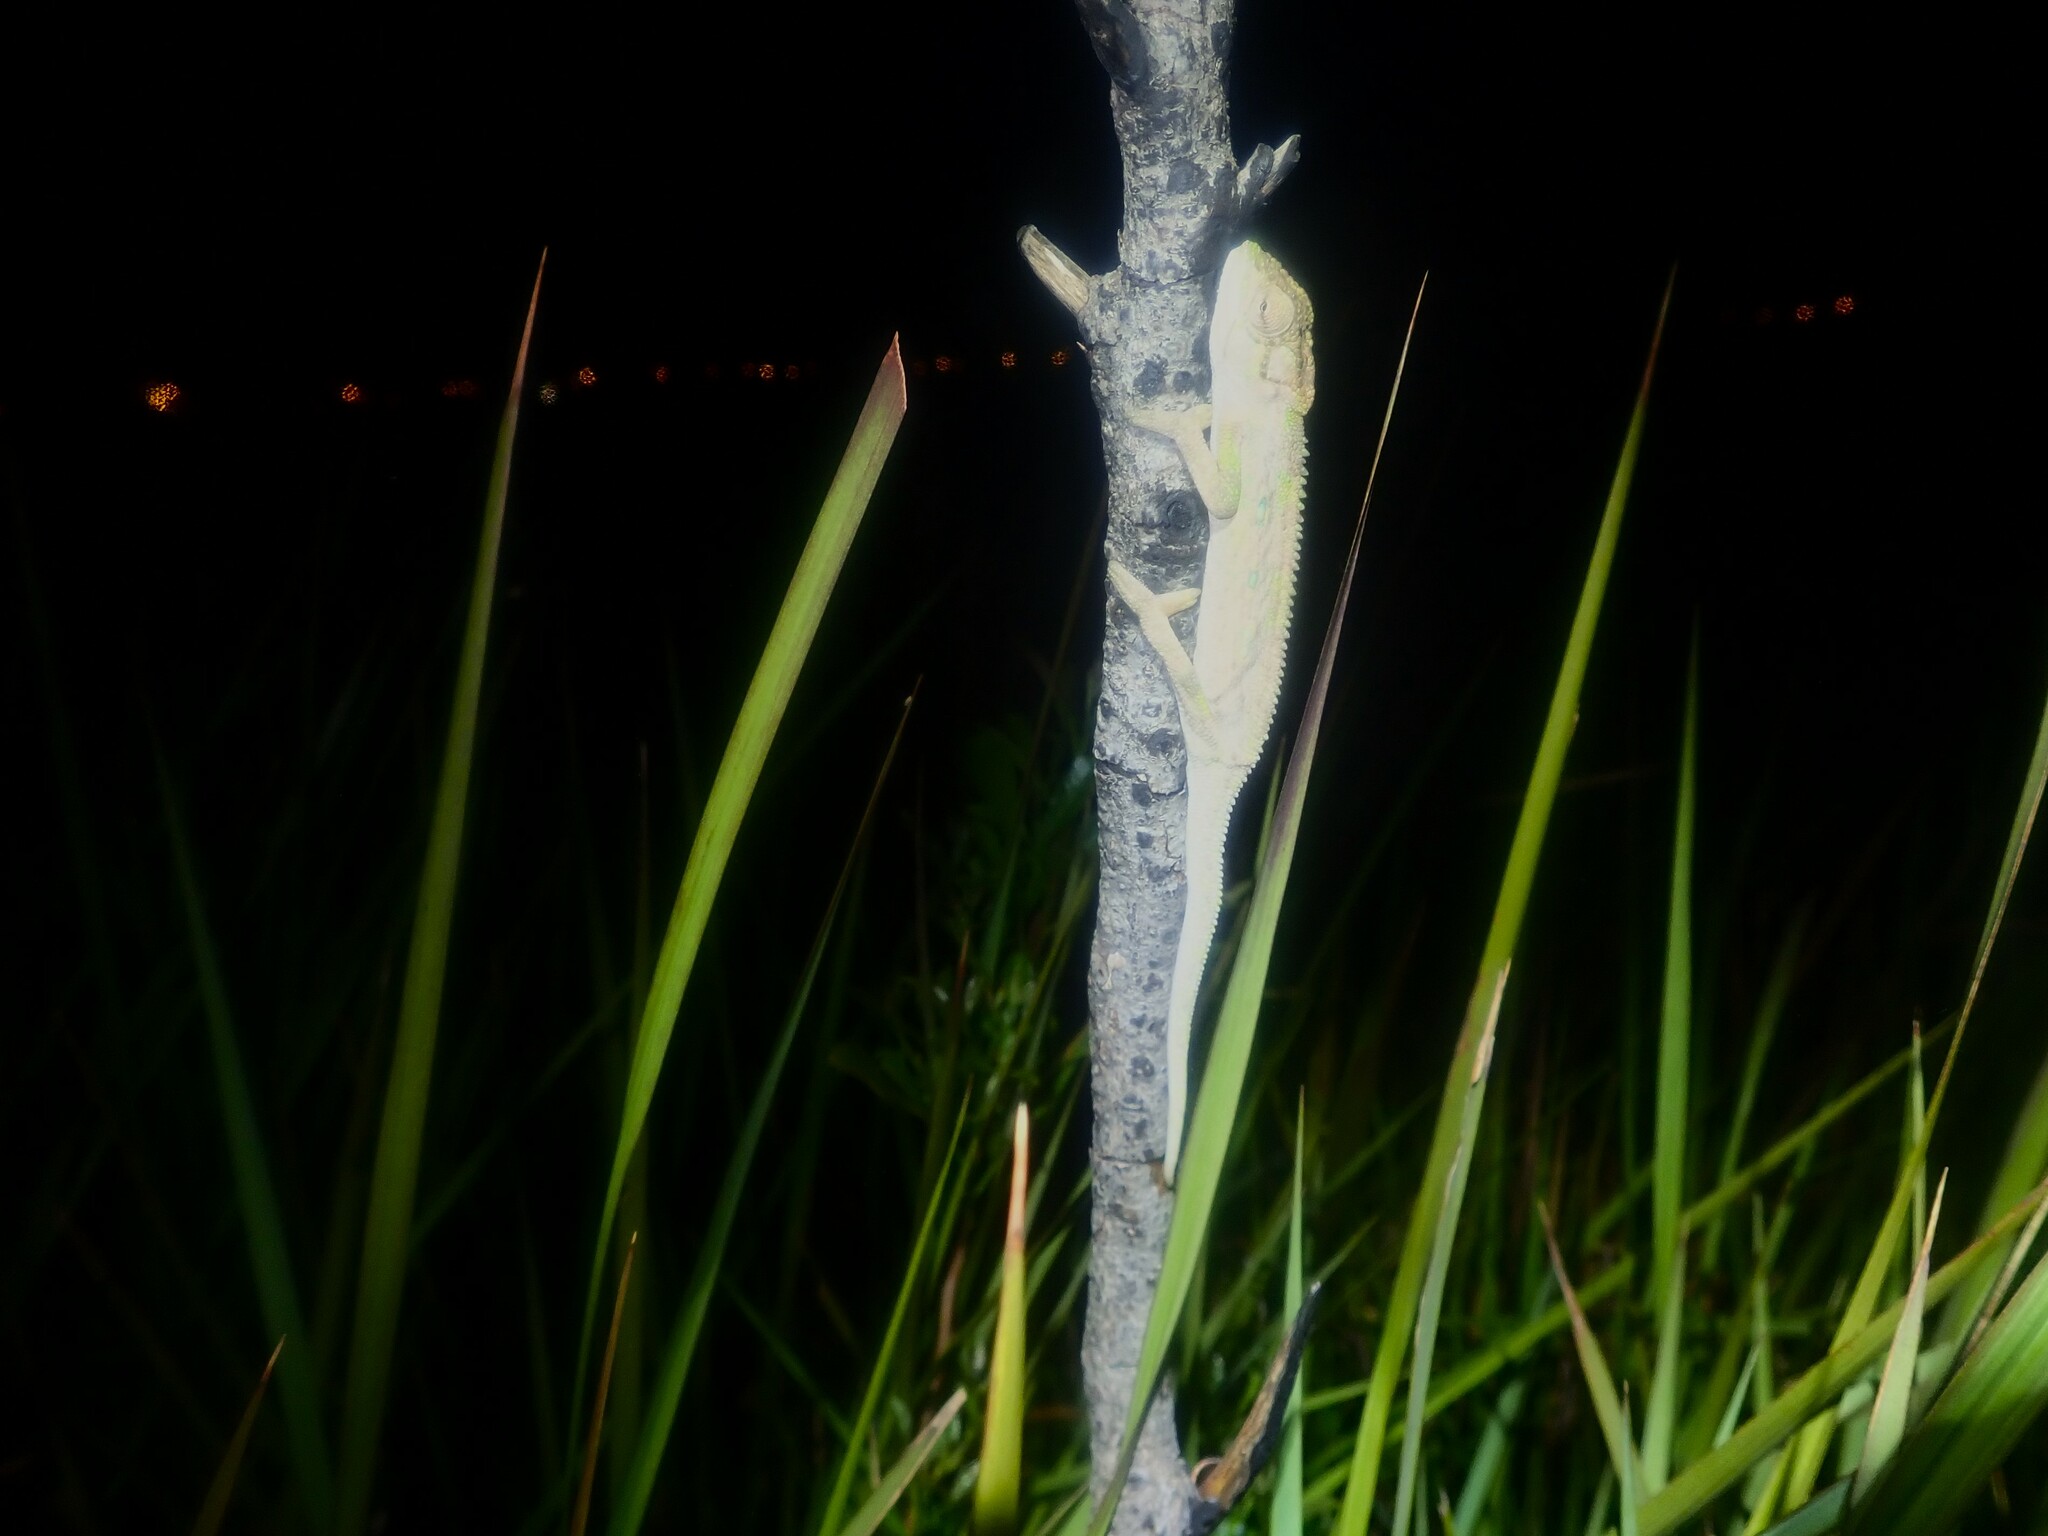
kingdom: Animalia
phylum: Chordata
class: Squamata
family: Chamaeleonidae
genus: Bradypodion
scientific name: Bradypodion pumilum
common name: Cape dwarf chameleon
